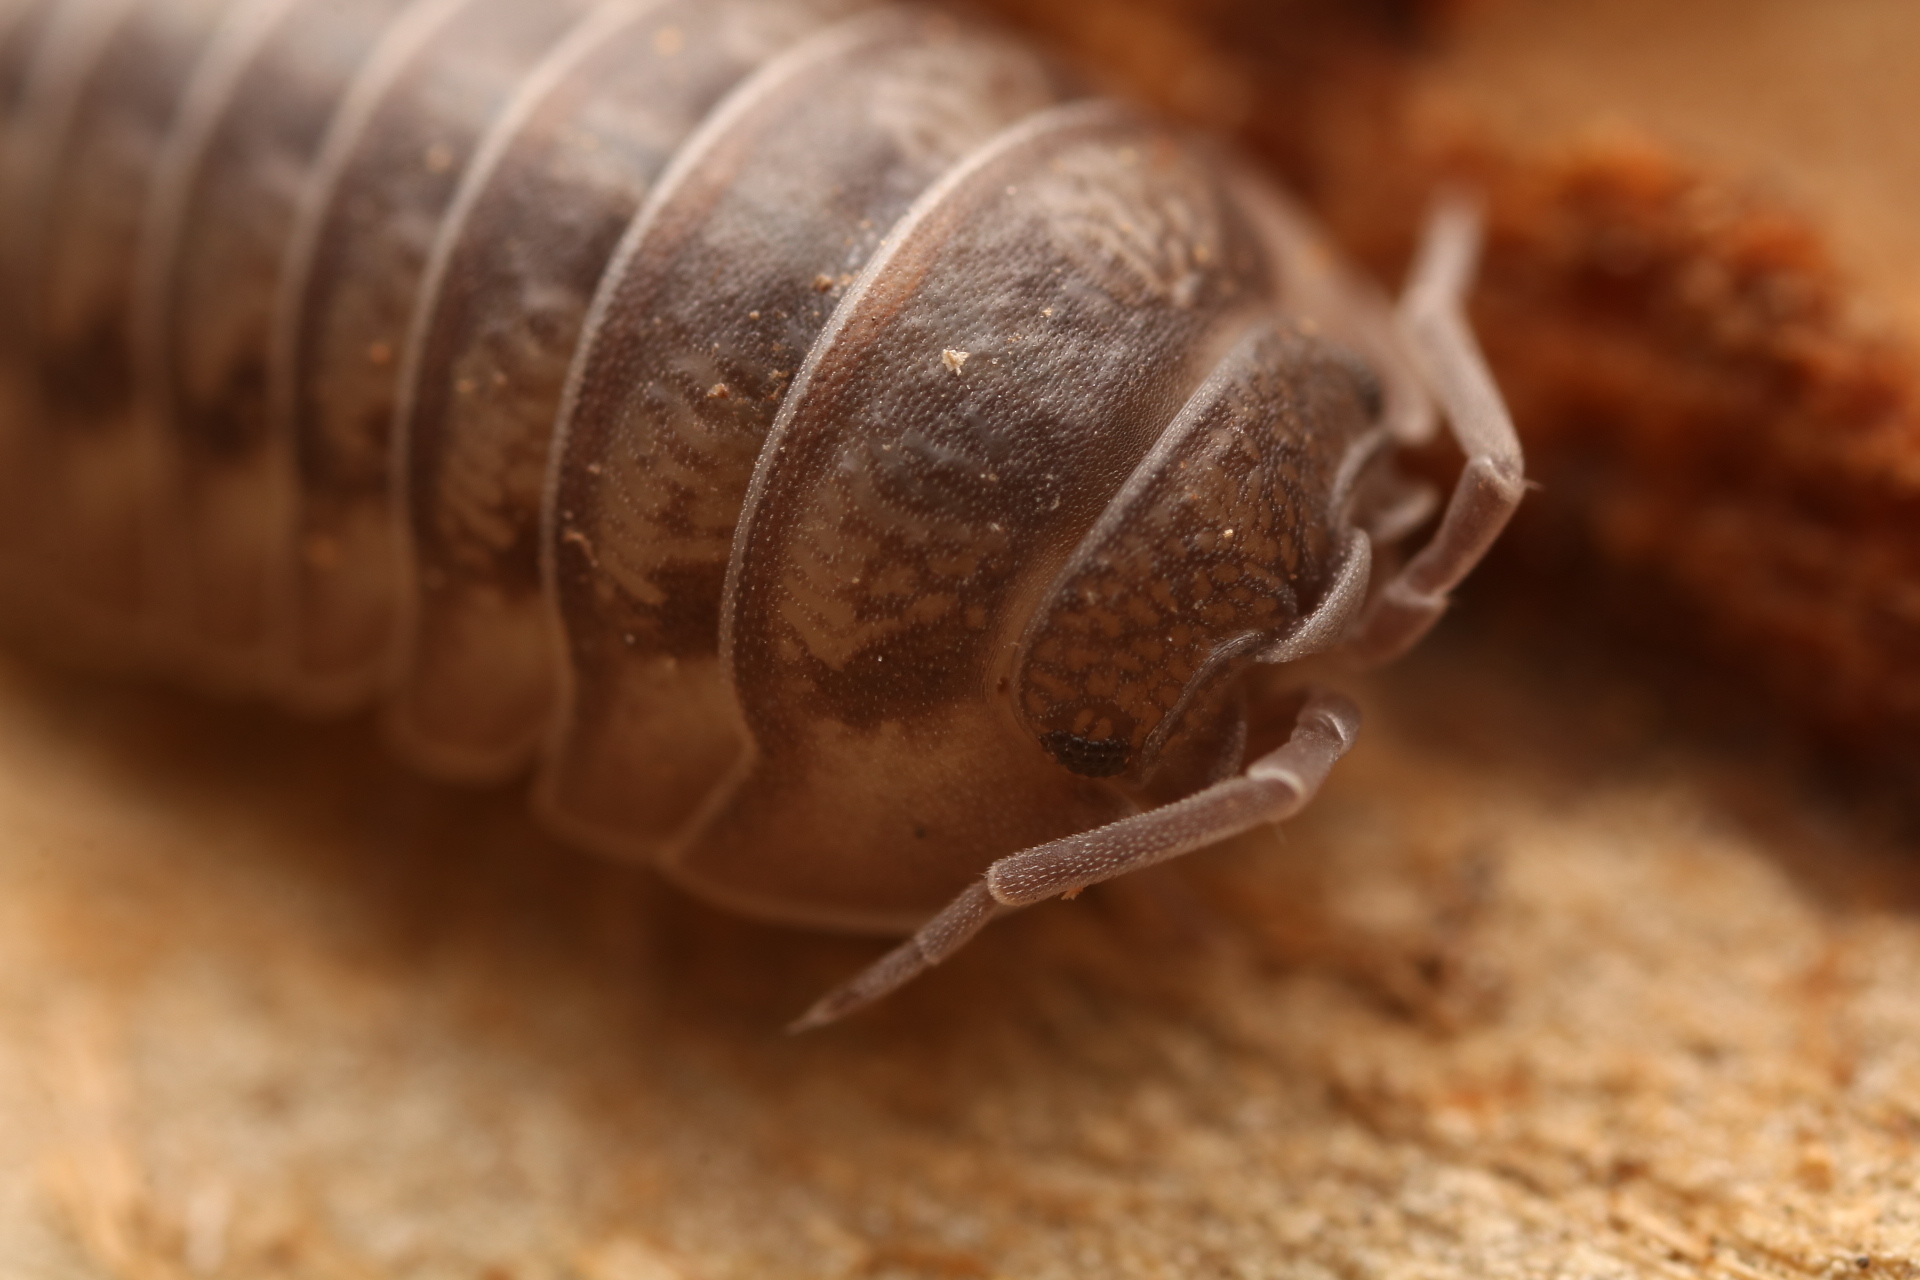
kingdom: Animalia
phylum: Arthropoda
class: Malacostraca
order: Isopoda
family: Armadillidiidae
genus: Armadillidium
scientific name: Armadillidium nasatum
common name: Isopod
